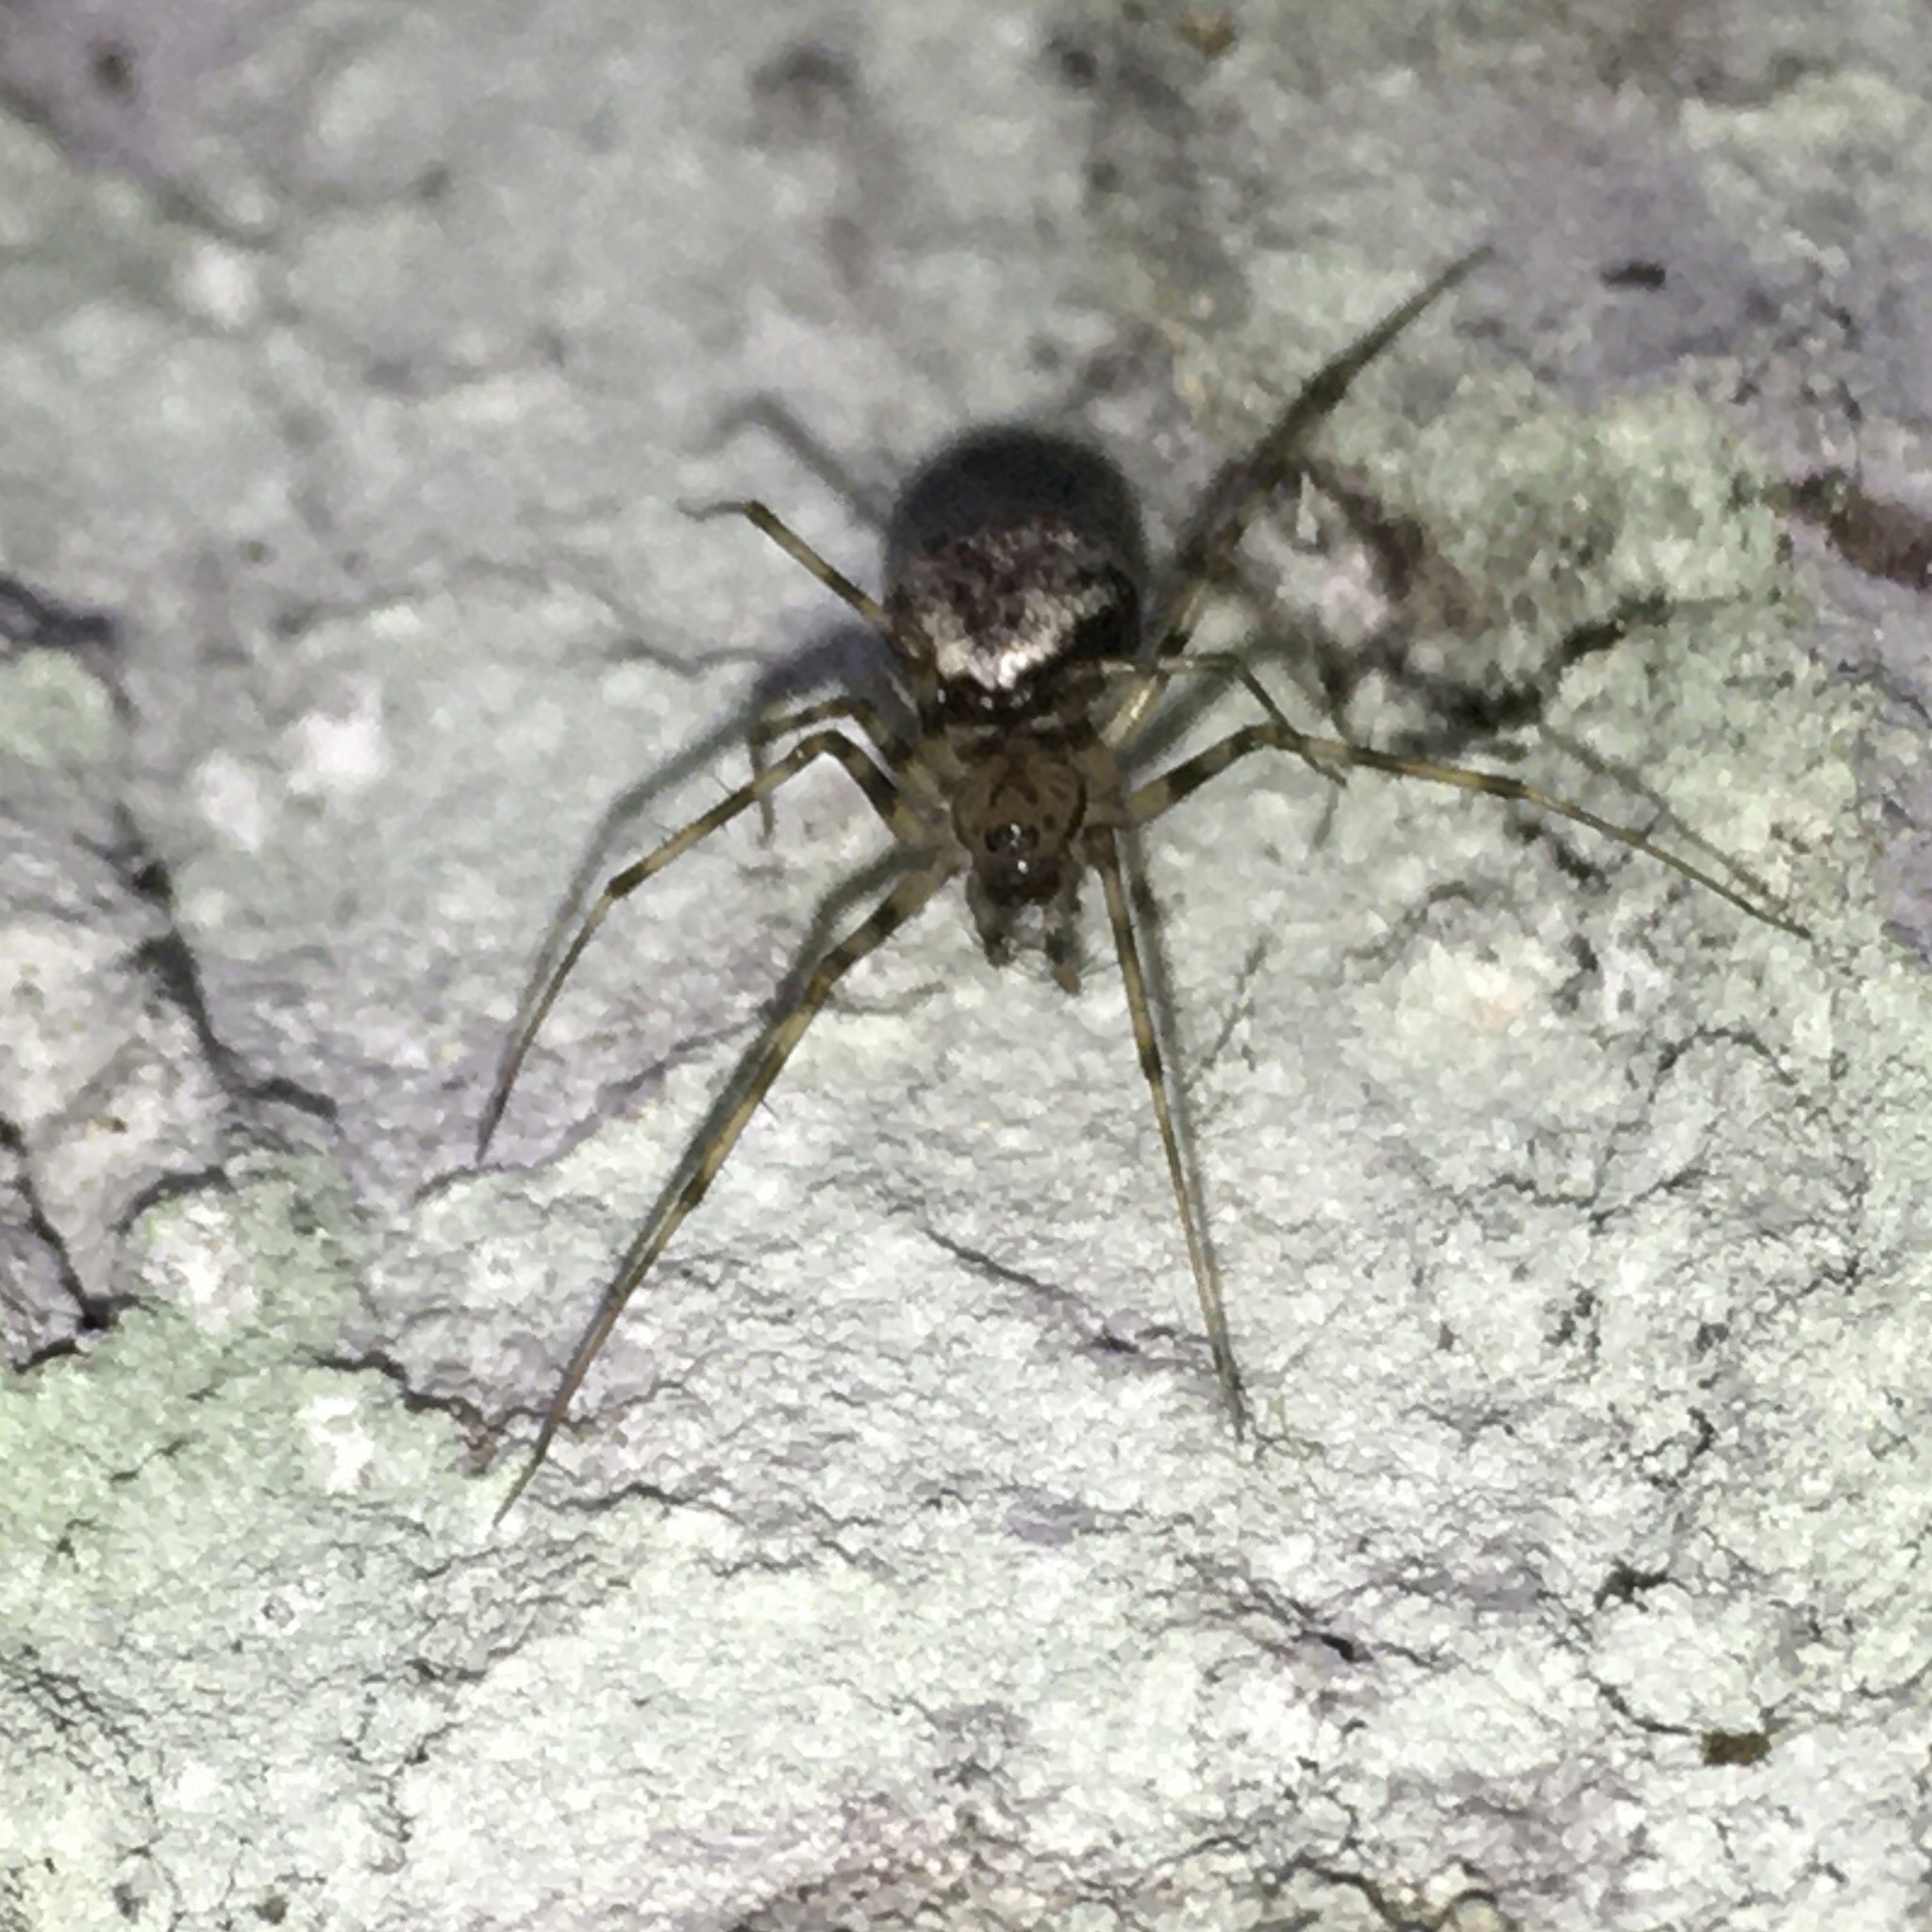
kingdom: Animalia
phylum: Arthropoda
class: Arachnida
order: Araneae
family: Linyphiidae
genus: Drapetisca
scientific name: Drapetisca socialis
